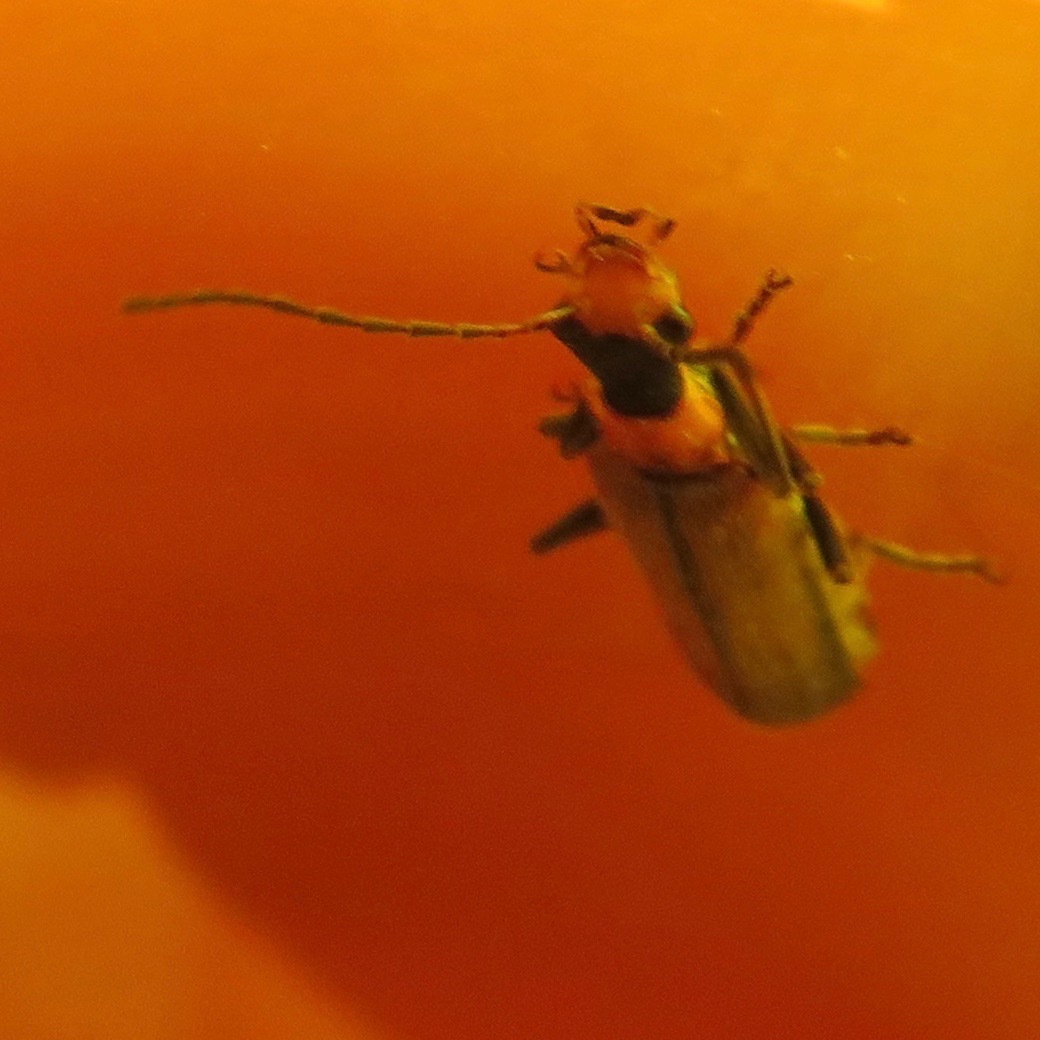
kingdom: Animalia
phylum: Arthropoda
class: Insecta
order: Coleoptera
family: Cantharidae
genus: Dichelotarsus
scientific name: Dichelotarsus cavicollis
